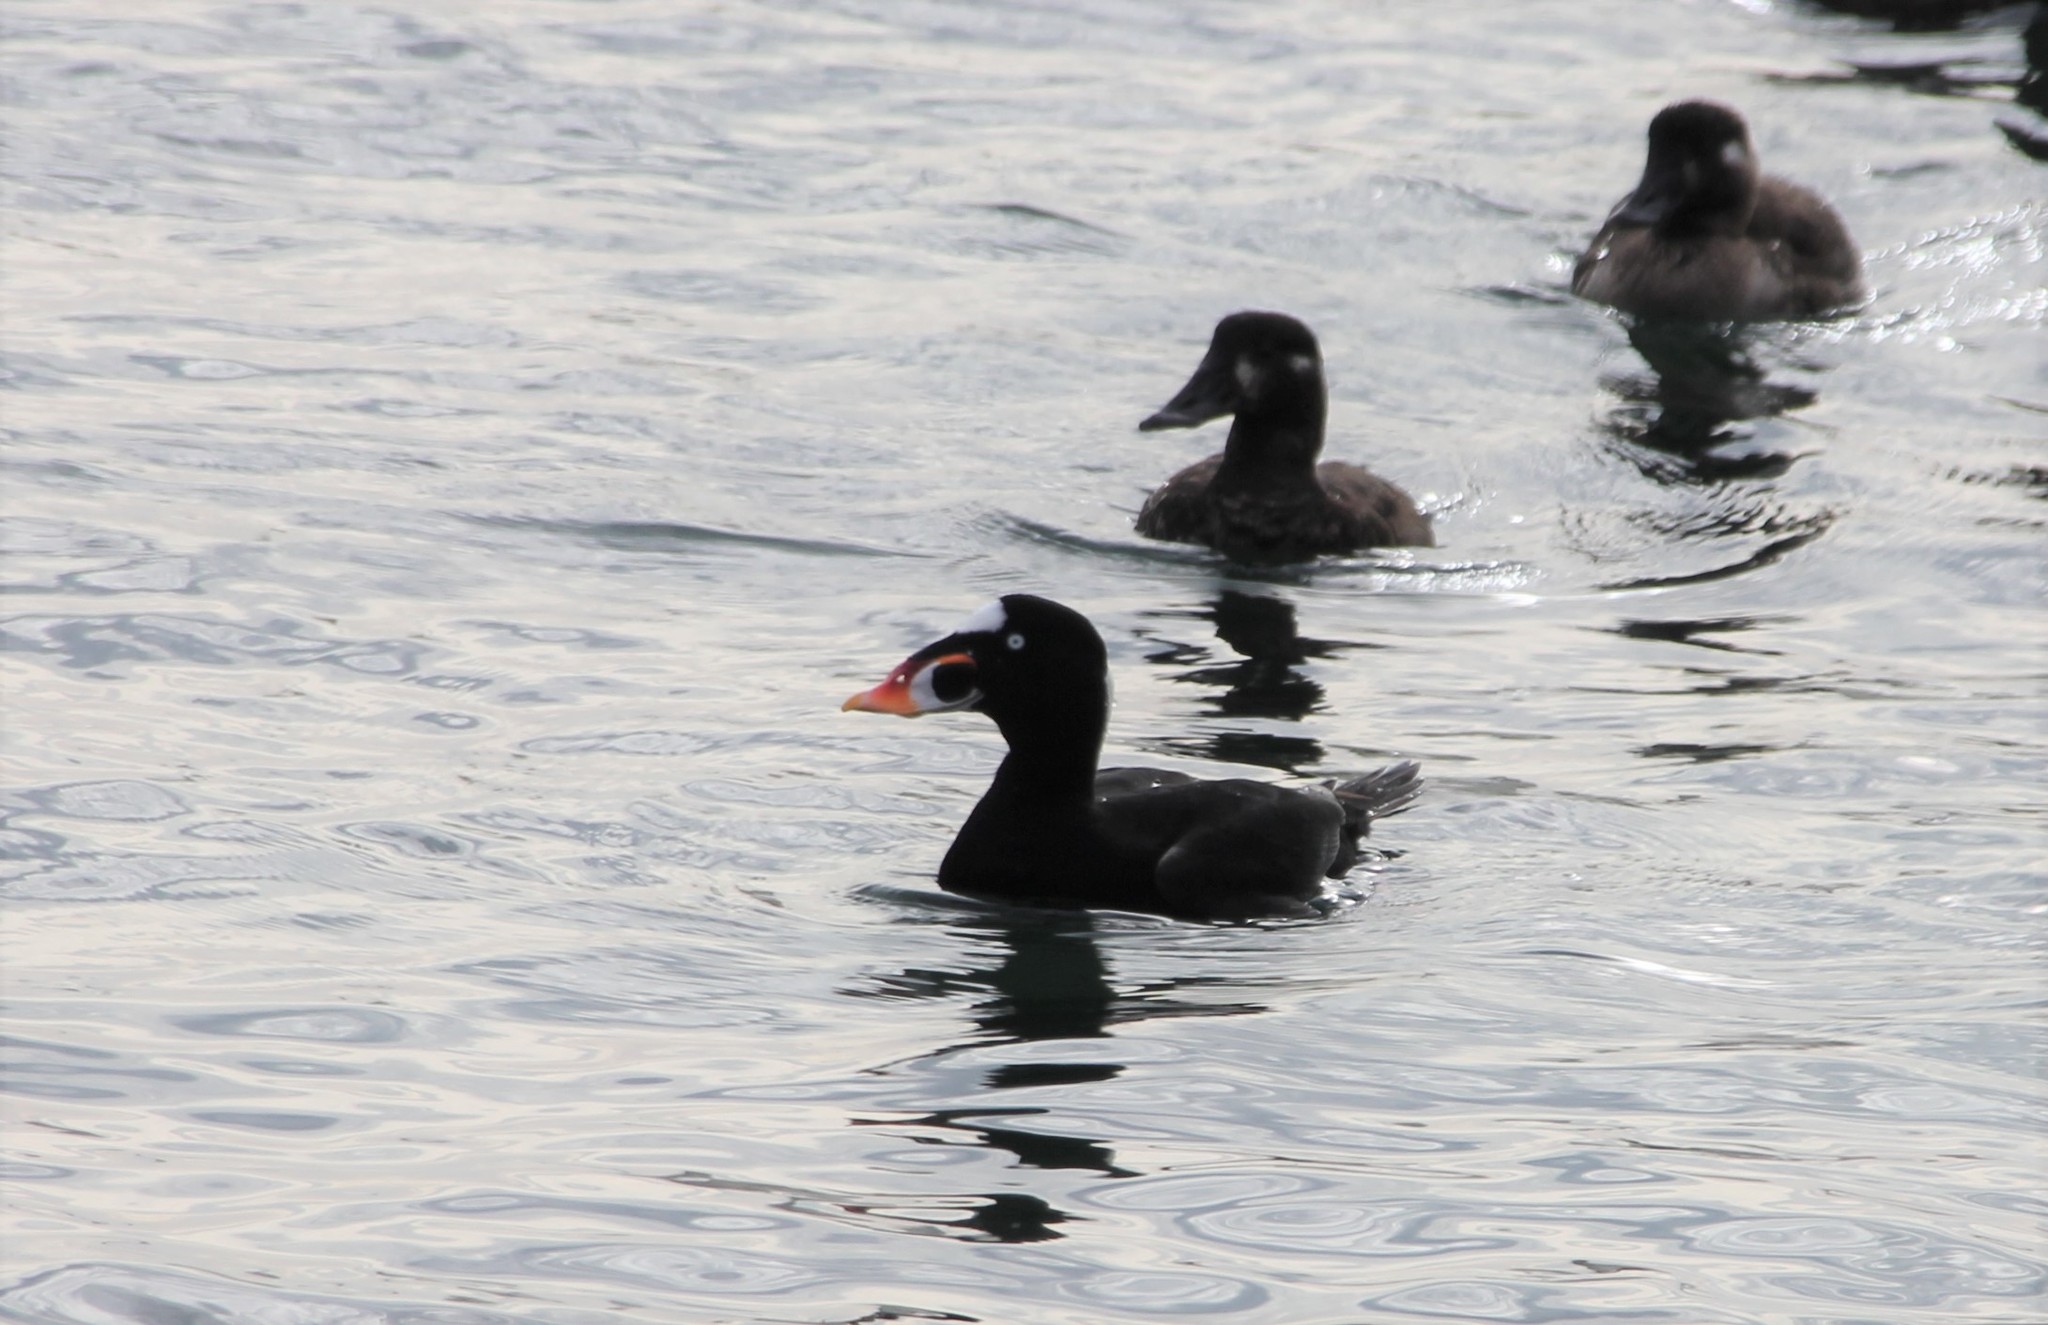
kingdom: Animalia
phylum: Chordata
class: Aves
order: Anseriformes
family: Anatidae
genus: Melanitta
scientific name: Melanitta perspicillata
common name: Surf scoter
